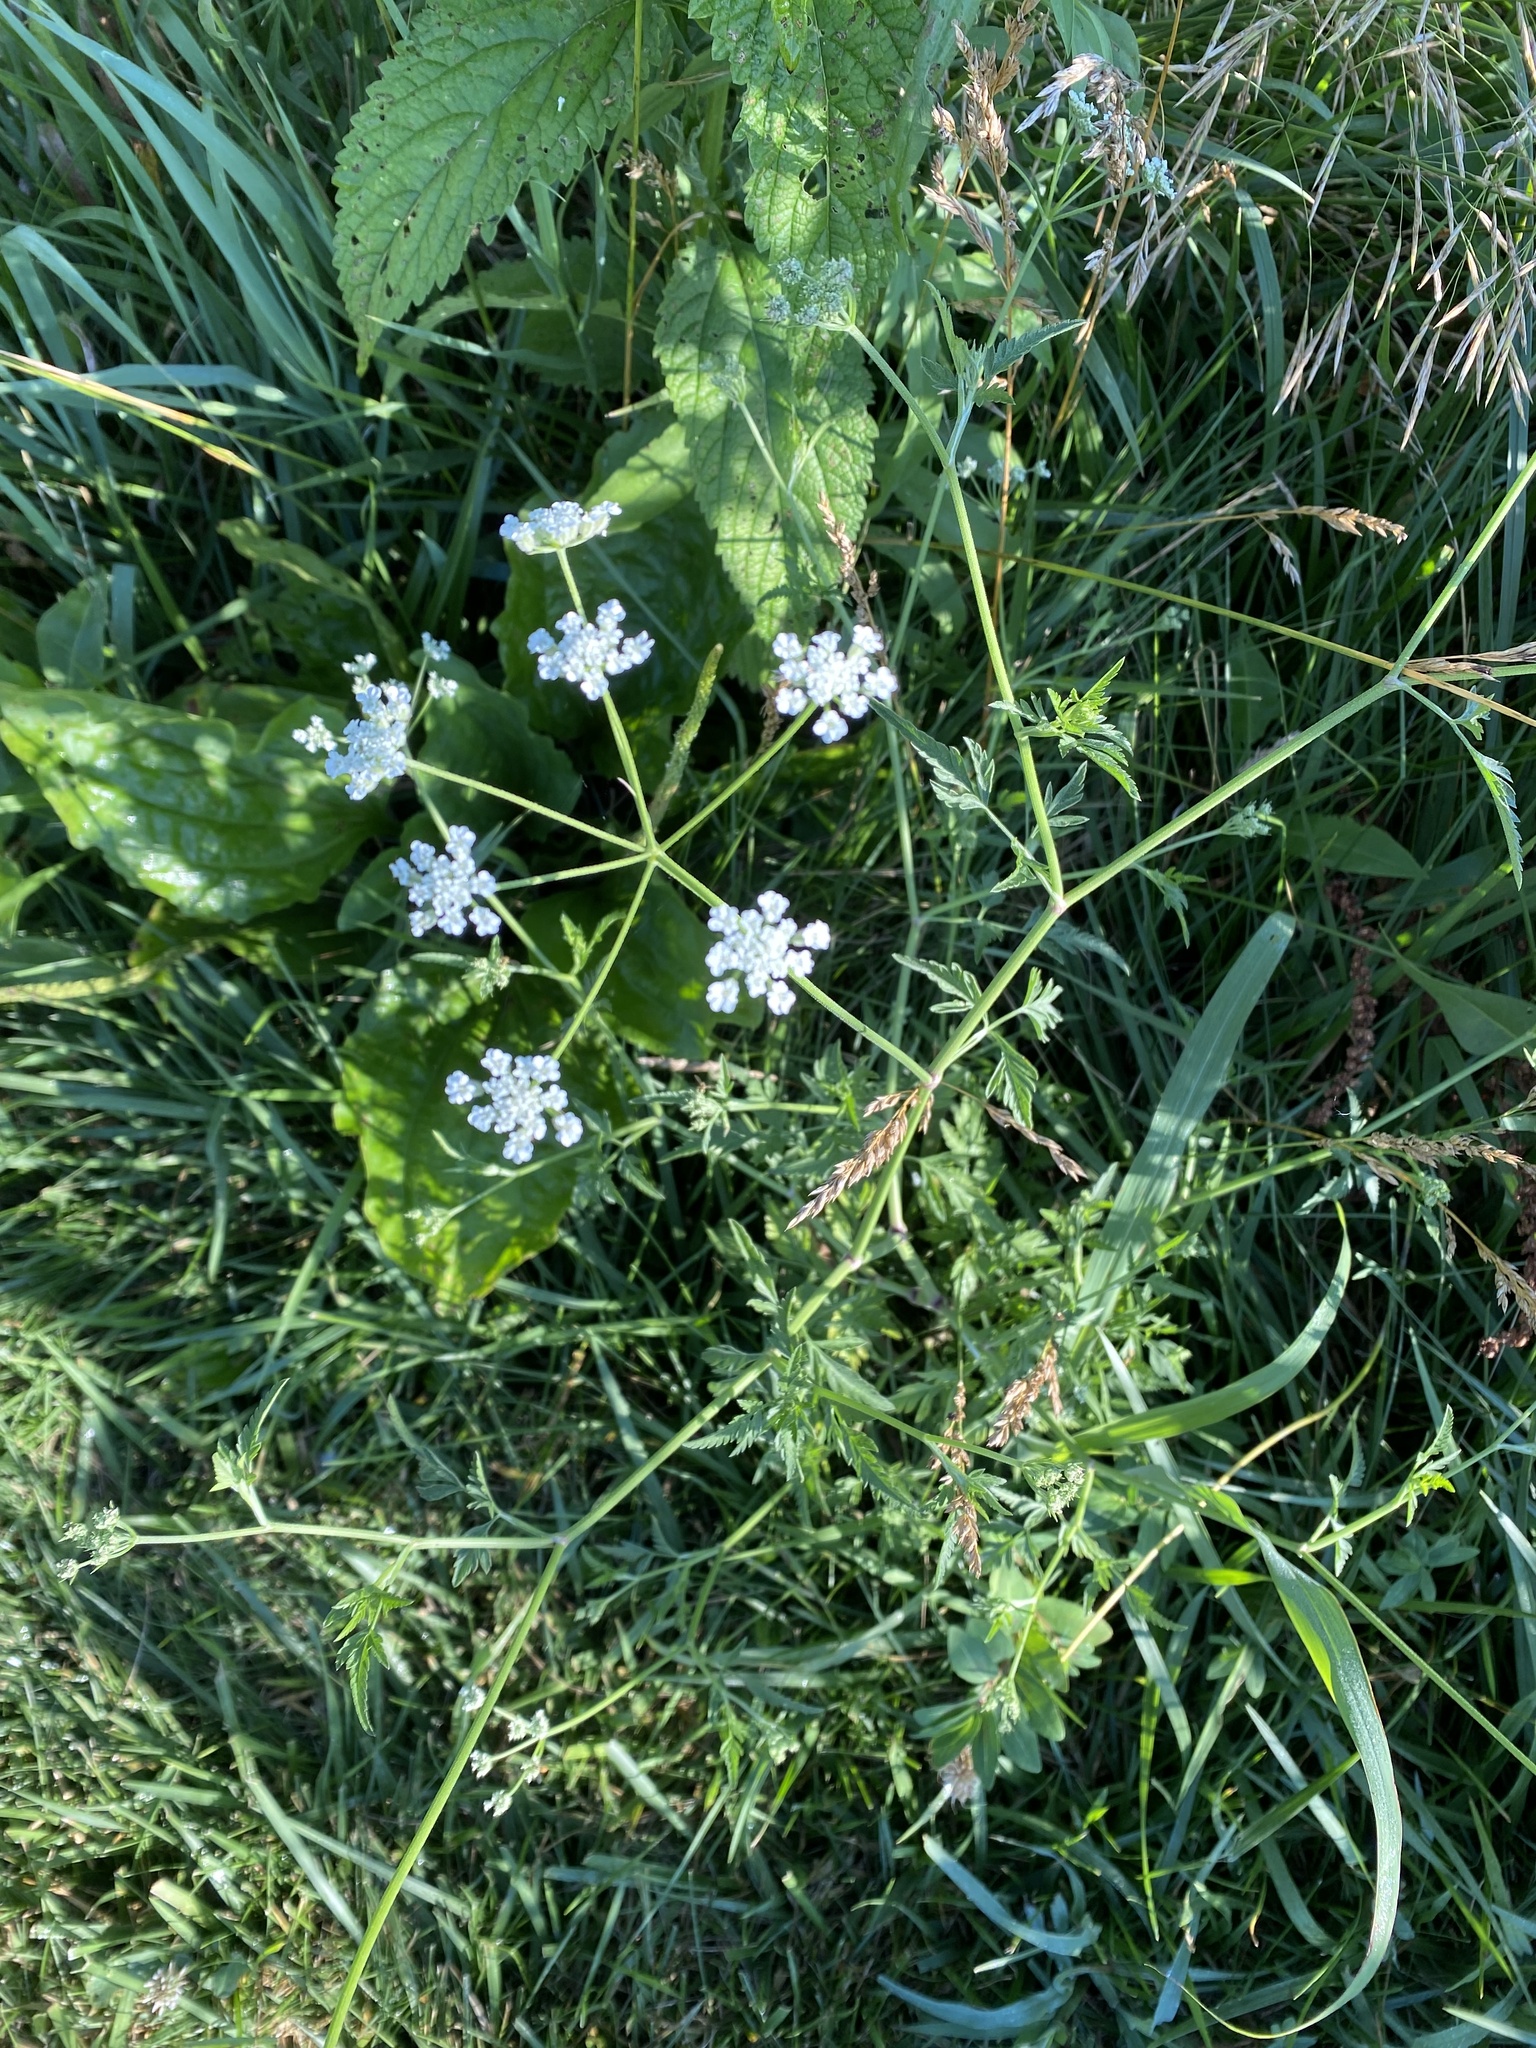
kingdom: Plantae
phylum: Tracheophyta
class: Magnoliopsida
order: Apiales
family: Apiaceae
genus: Torilis
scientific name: Torilis arvensis
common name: Spreading hedge-parsley
